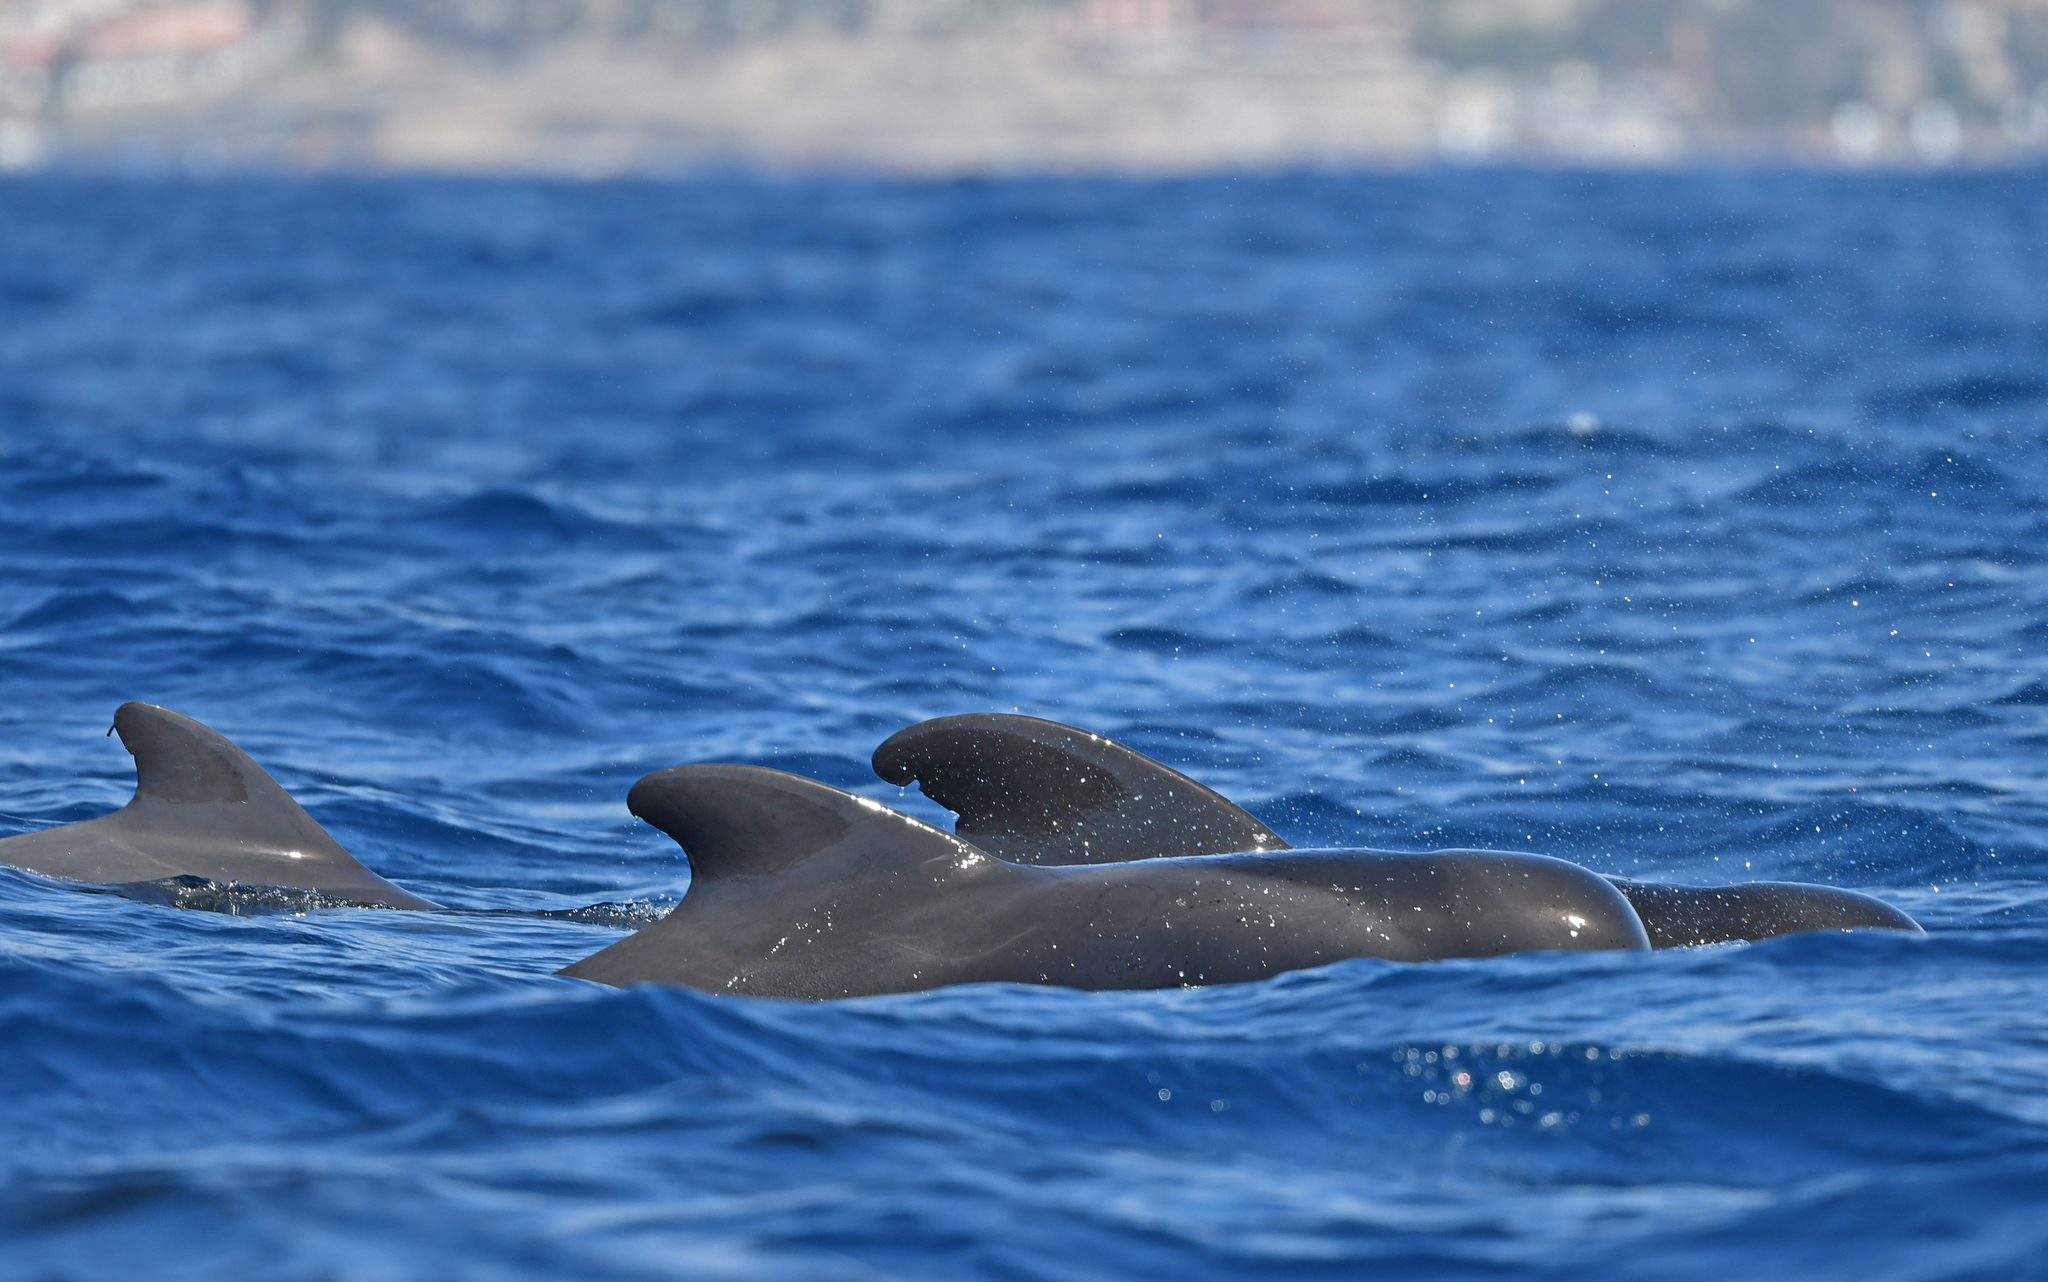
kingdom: Animalia
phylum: Chordata
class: Mammalia
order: Cetacea
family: Delphinidae
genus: Globicephala
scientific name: Globicephala macrorhynchus
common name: Short-finned pilot whale
